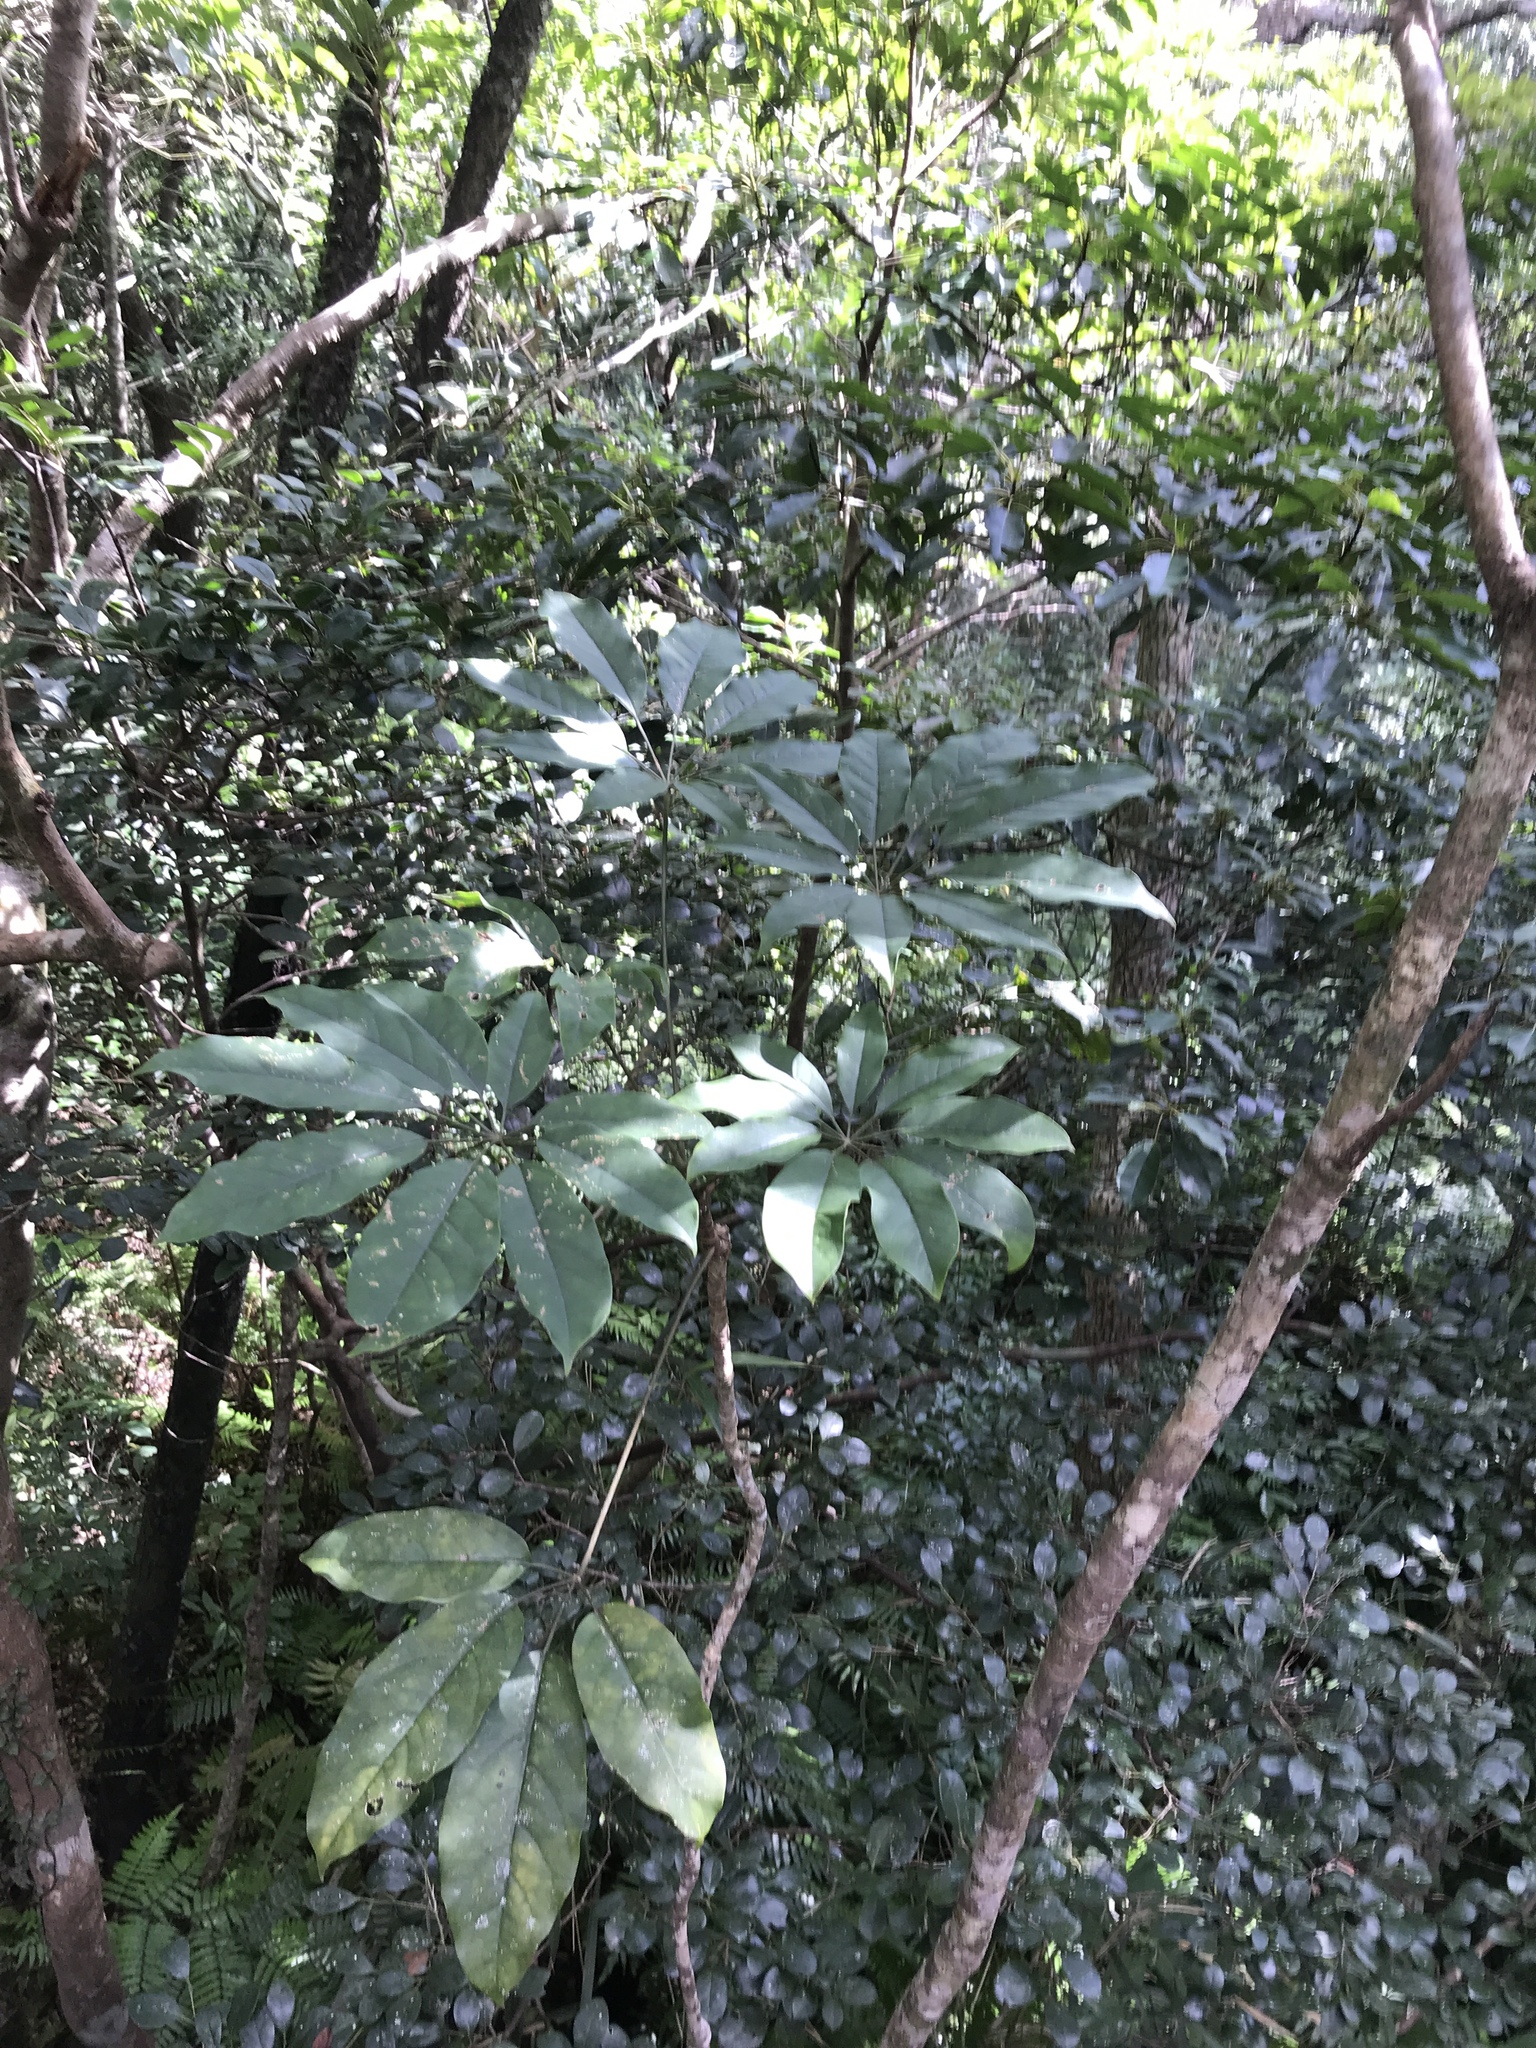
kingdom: Plantae
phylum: Tracheophyta
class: Magnoliopsida
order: Apiales
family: Araliaceae
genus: Heptapleurum
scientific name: Heptapleurum heptaphyllum
